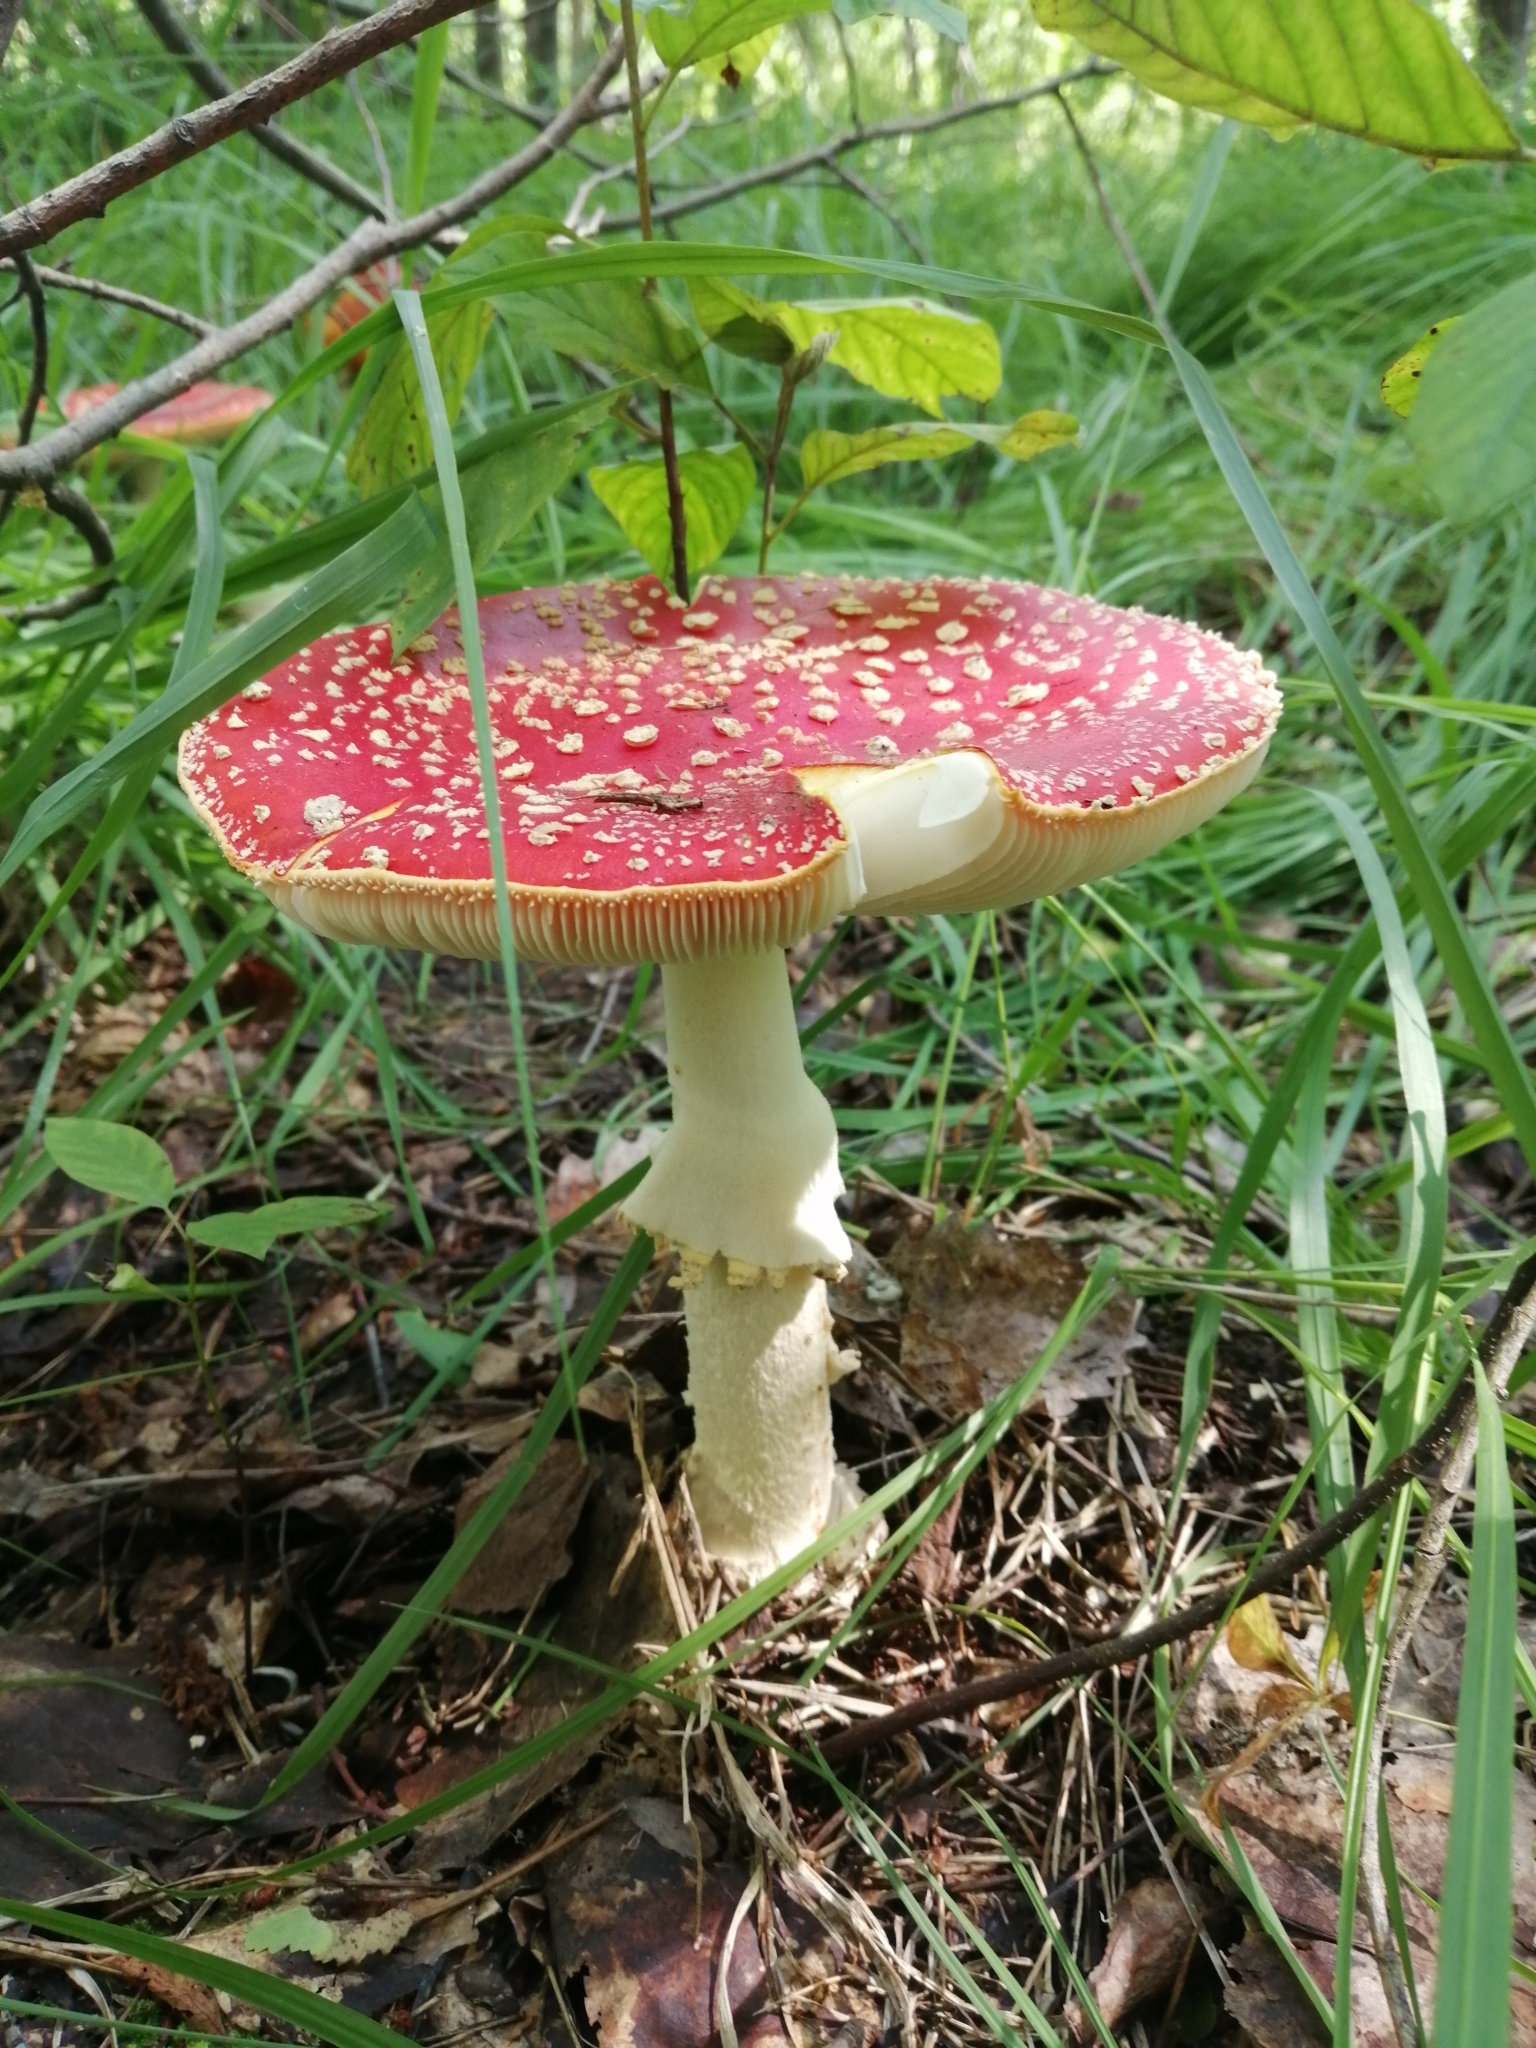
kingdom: Fungi
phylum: Basidiomycota
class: Agaricomycetes
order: Agaricales
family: Amanitaceae
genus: Amanita
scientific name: Amanita muscaria
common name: Fly agaric
